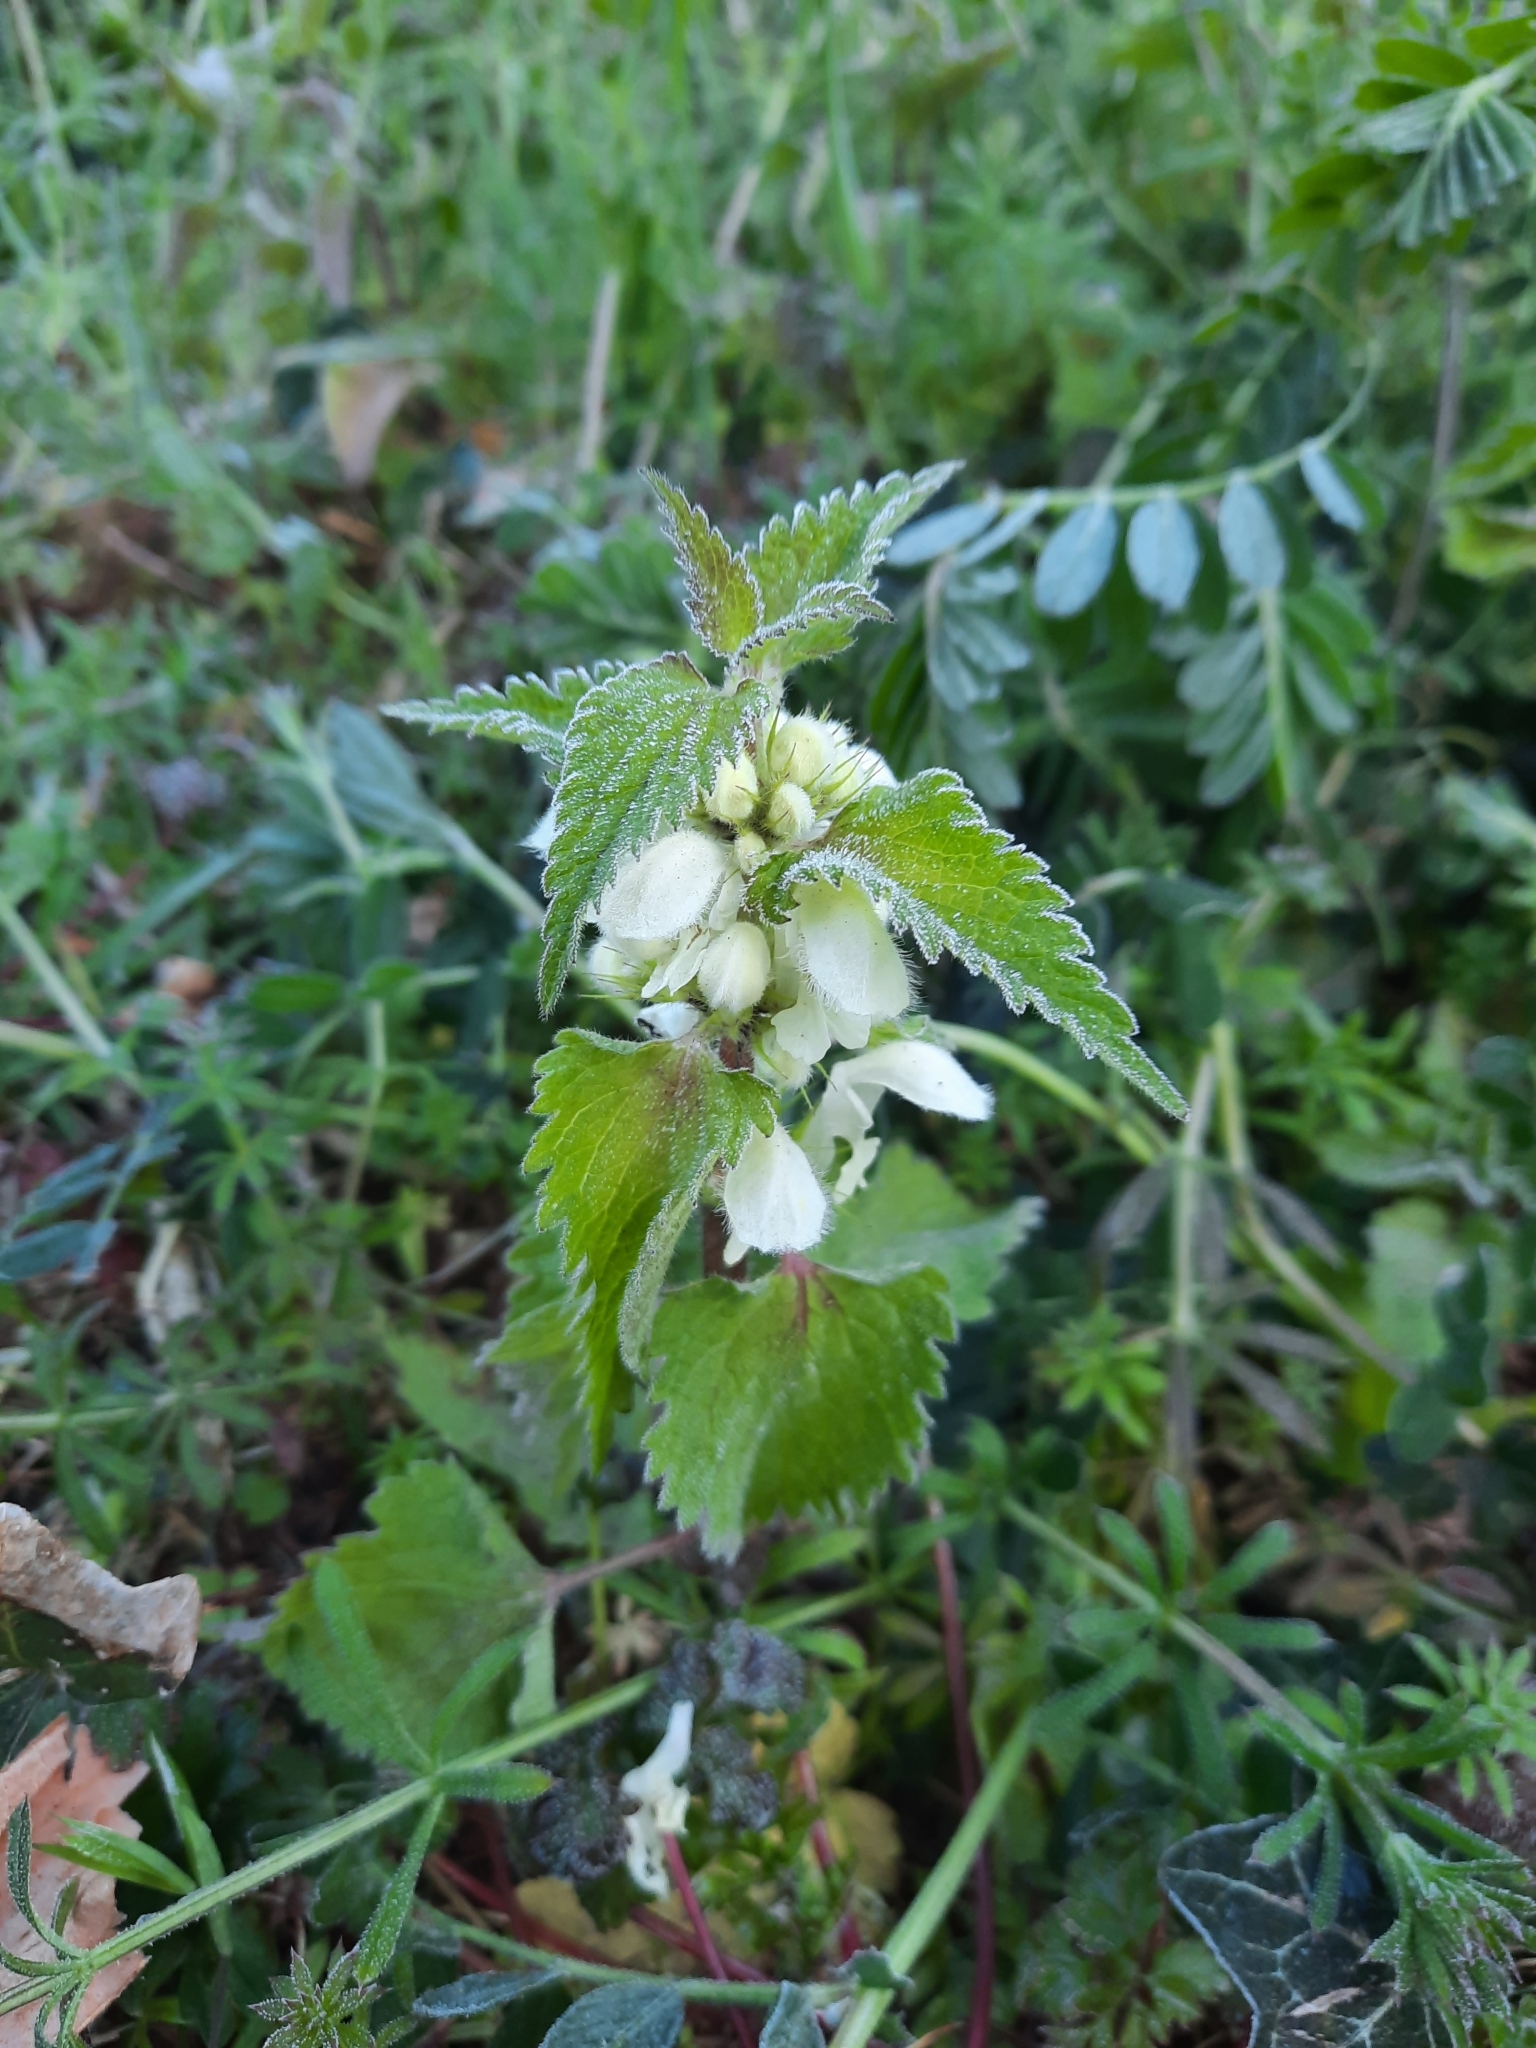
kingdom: Plantae
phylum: Tracheophyta
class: Magnoliopsida
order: Lamiales
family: Lamiaceae
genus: Lamium
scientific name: Lamium album
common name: White dead-nettle
